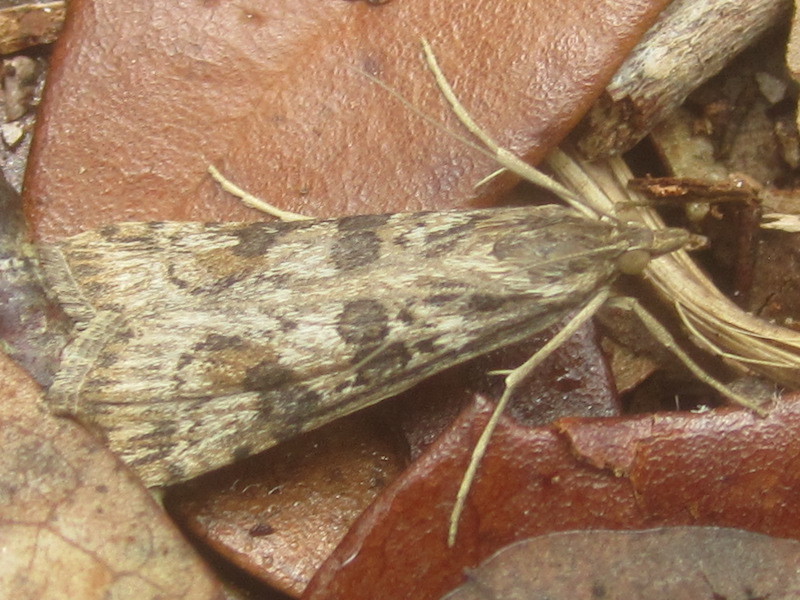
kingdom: Animalia
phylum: Arthropoda
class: Insecta
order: Lepidoptera
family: Crambidae
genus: Nomophila
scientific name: Nomophila nearctica
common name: American rush veneer
